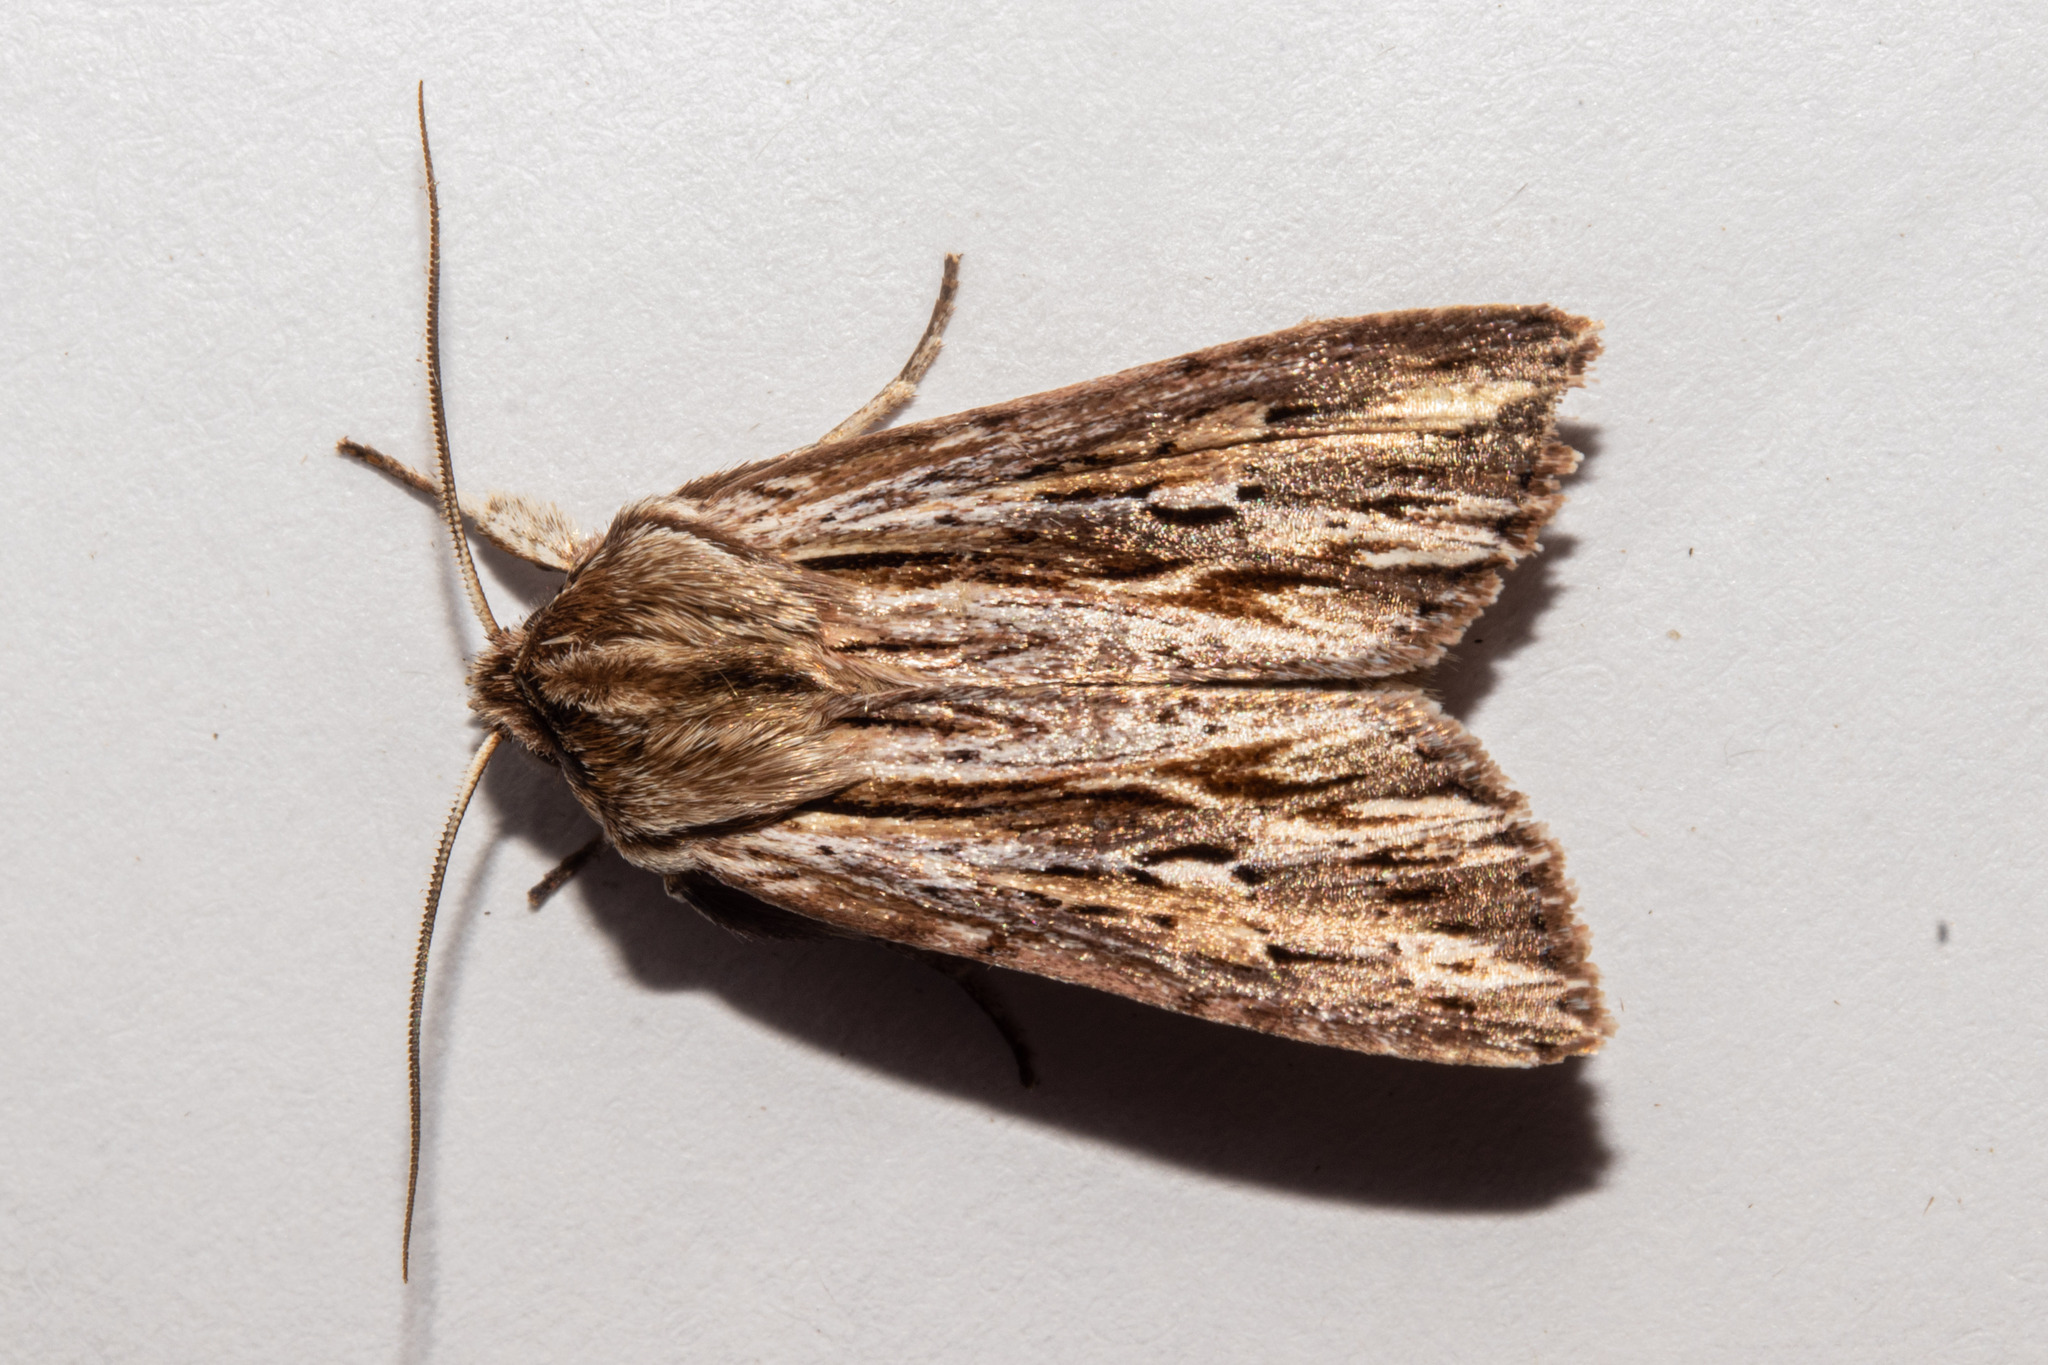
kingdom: Animalia
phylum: Arthropoda
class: Insecta
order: Lepidoptera
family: Noctuidae
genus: Ichneutica
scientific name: Ichneutica
